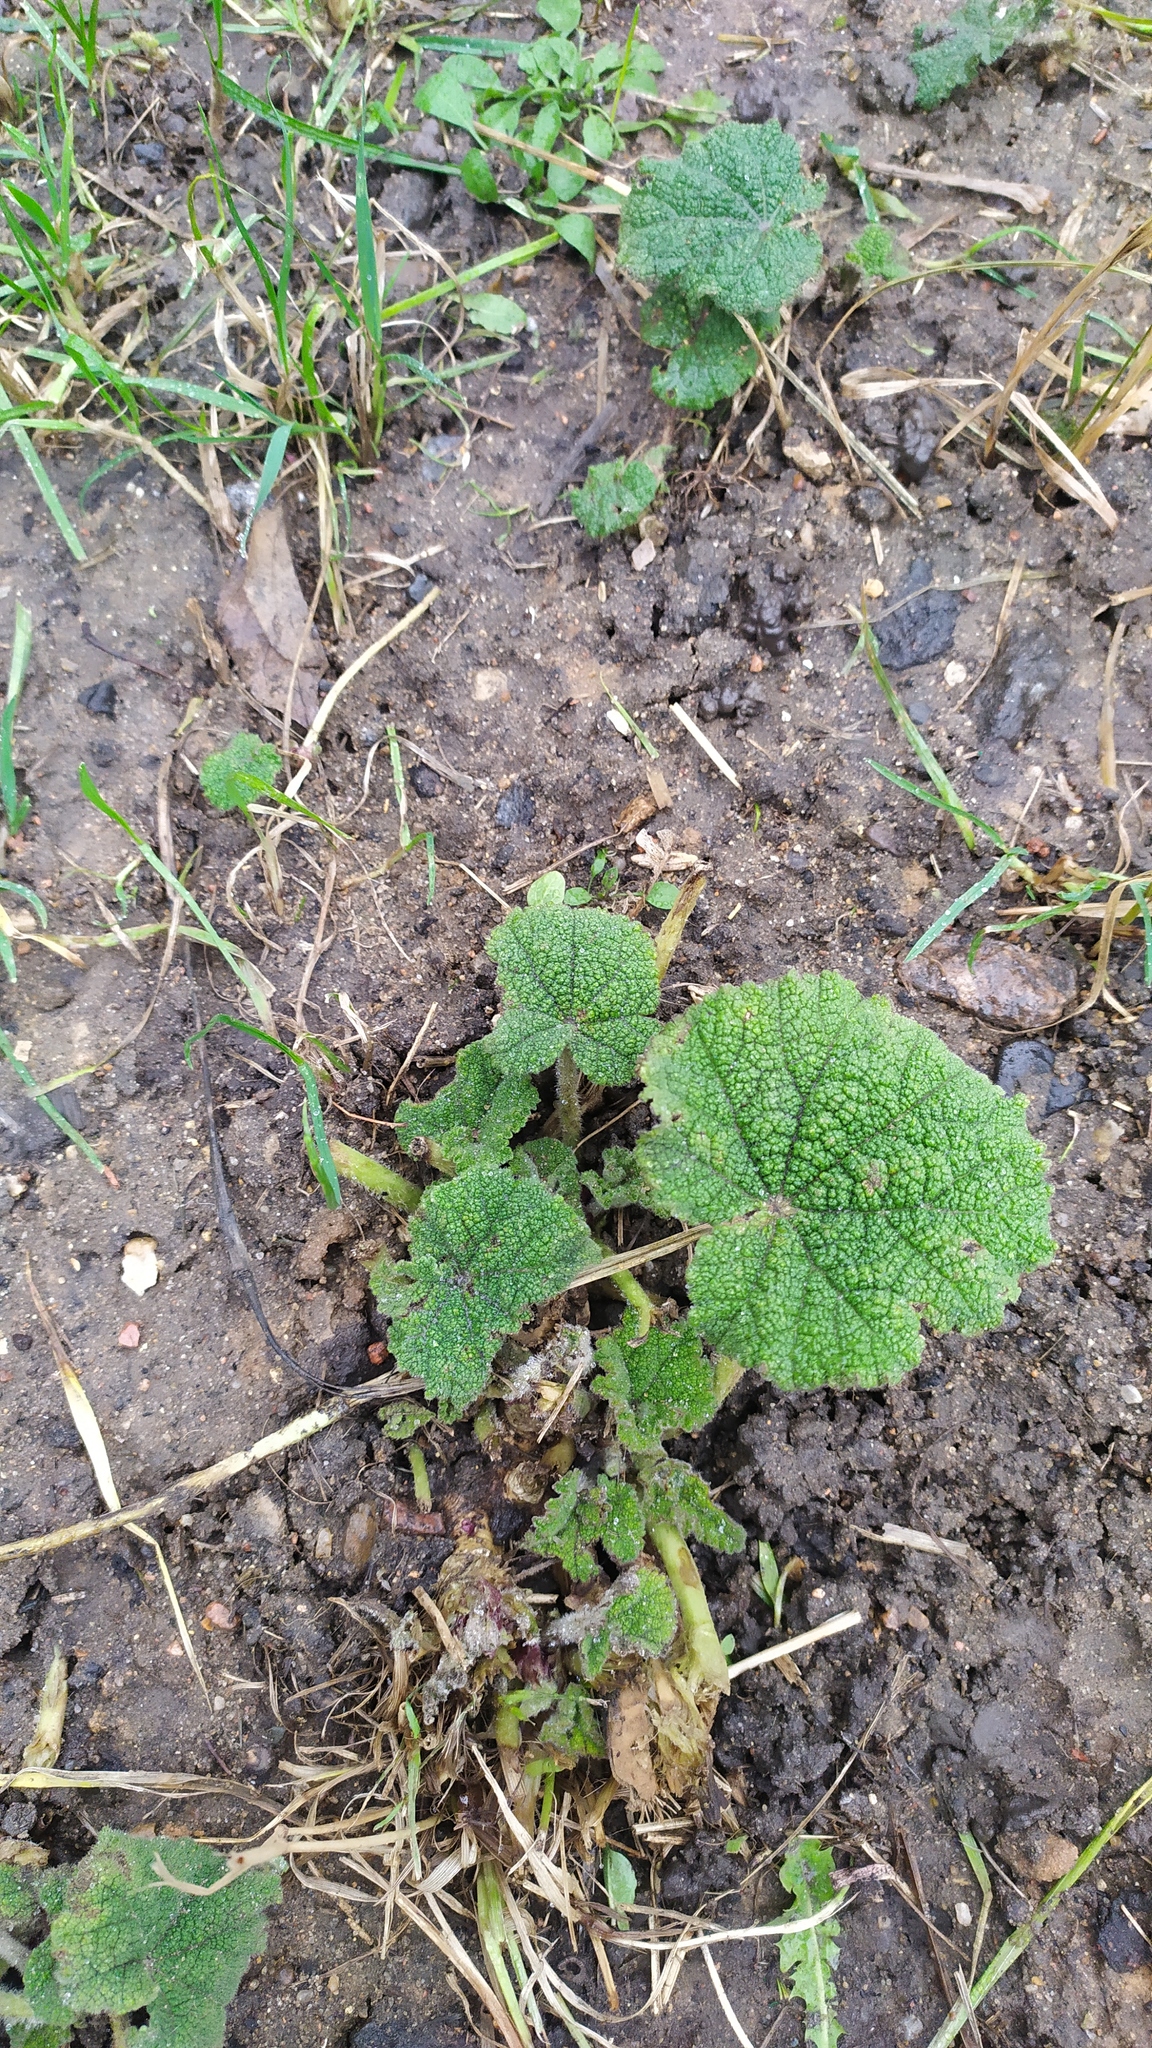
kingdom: Plantae
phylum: Tracheophyta
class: Magnoliopsida
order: Malvales
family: Malvaceae
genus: Alcea
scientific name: Alcea rosea
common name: Hollyhock
